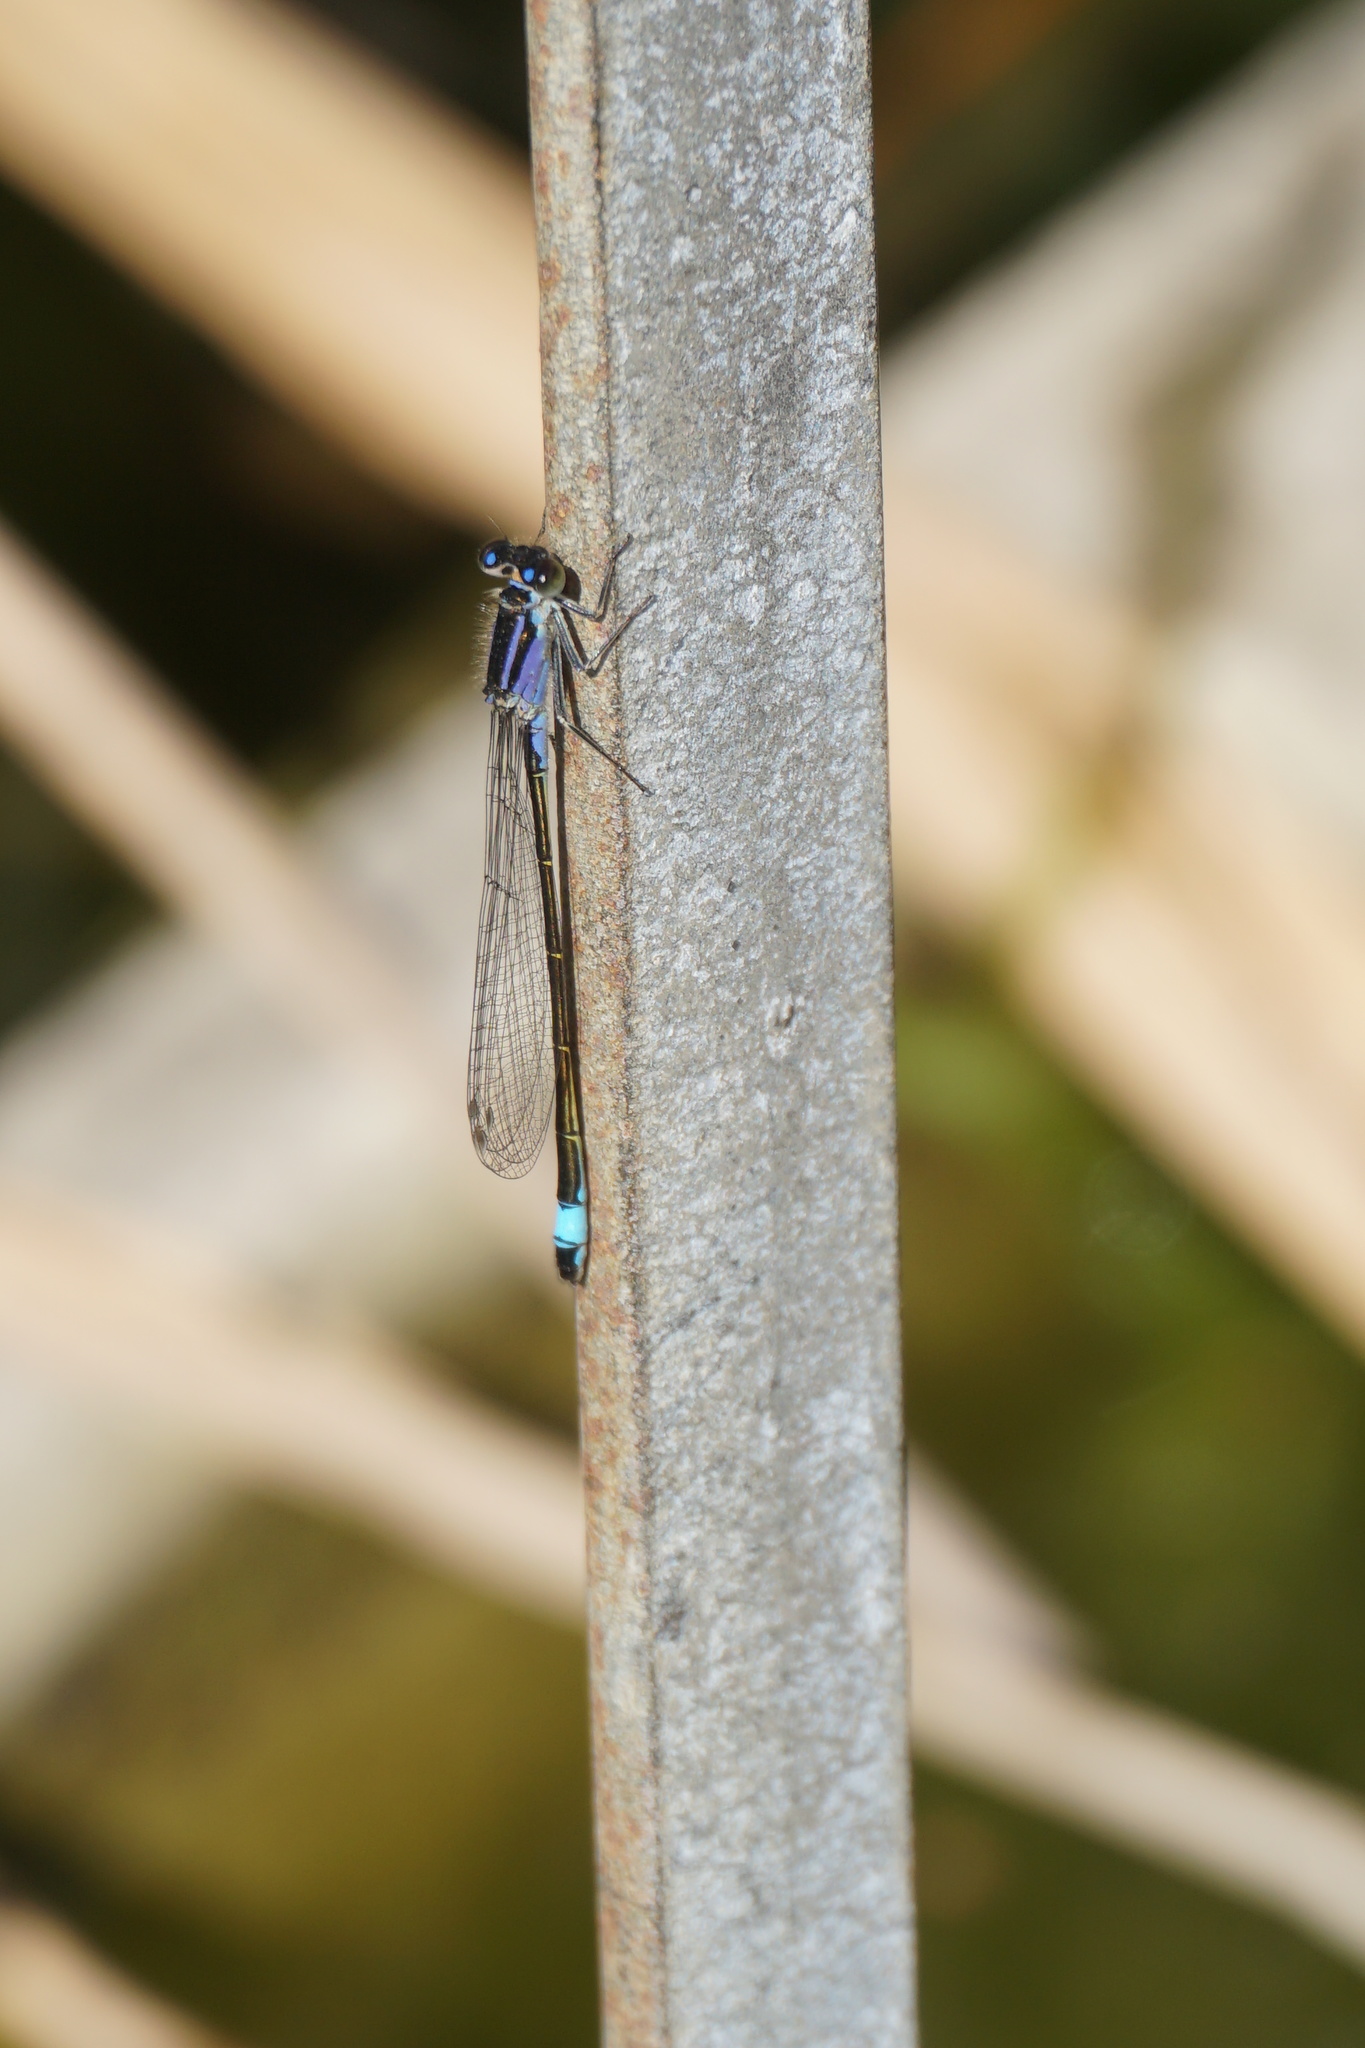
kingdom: Animalia
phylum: Arthropoda
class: Insecta
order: Odonata
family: Coenagrionidae
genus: Ischnura
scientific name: Ischnura elegans
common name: Blue-tailed damselfly
